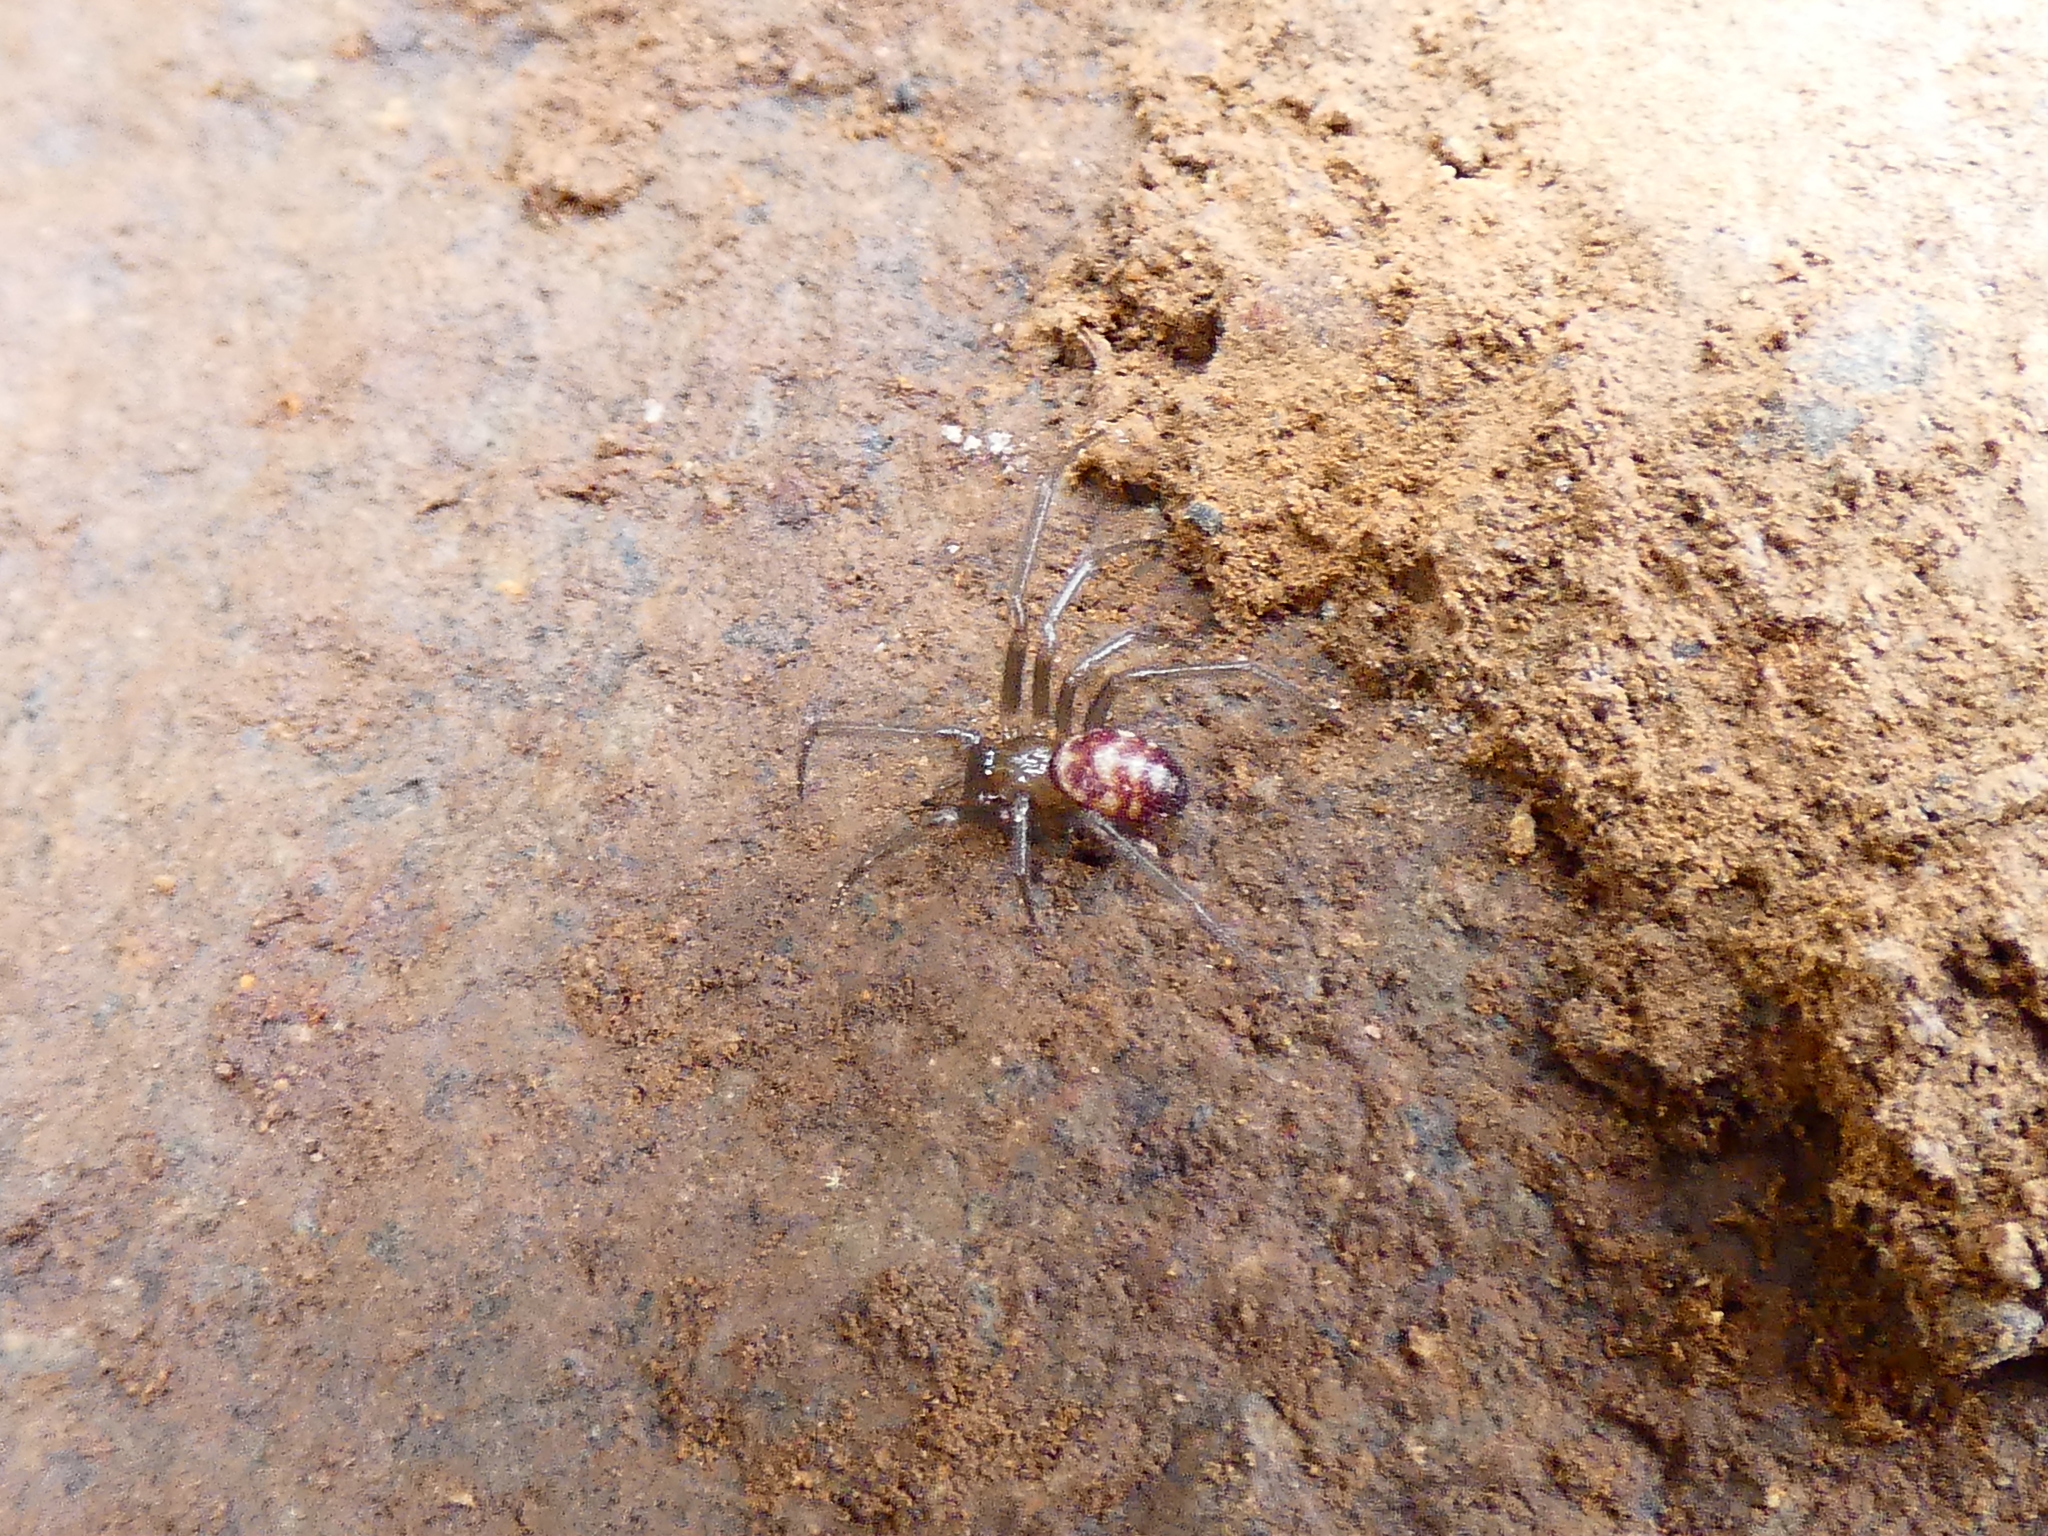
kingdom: Animalia
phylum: Arthropoda
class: Arachnida
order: Araneae
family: Theridiidae
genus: Steatoda
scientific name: Steatoda grossa
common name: False black widow
